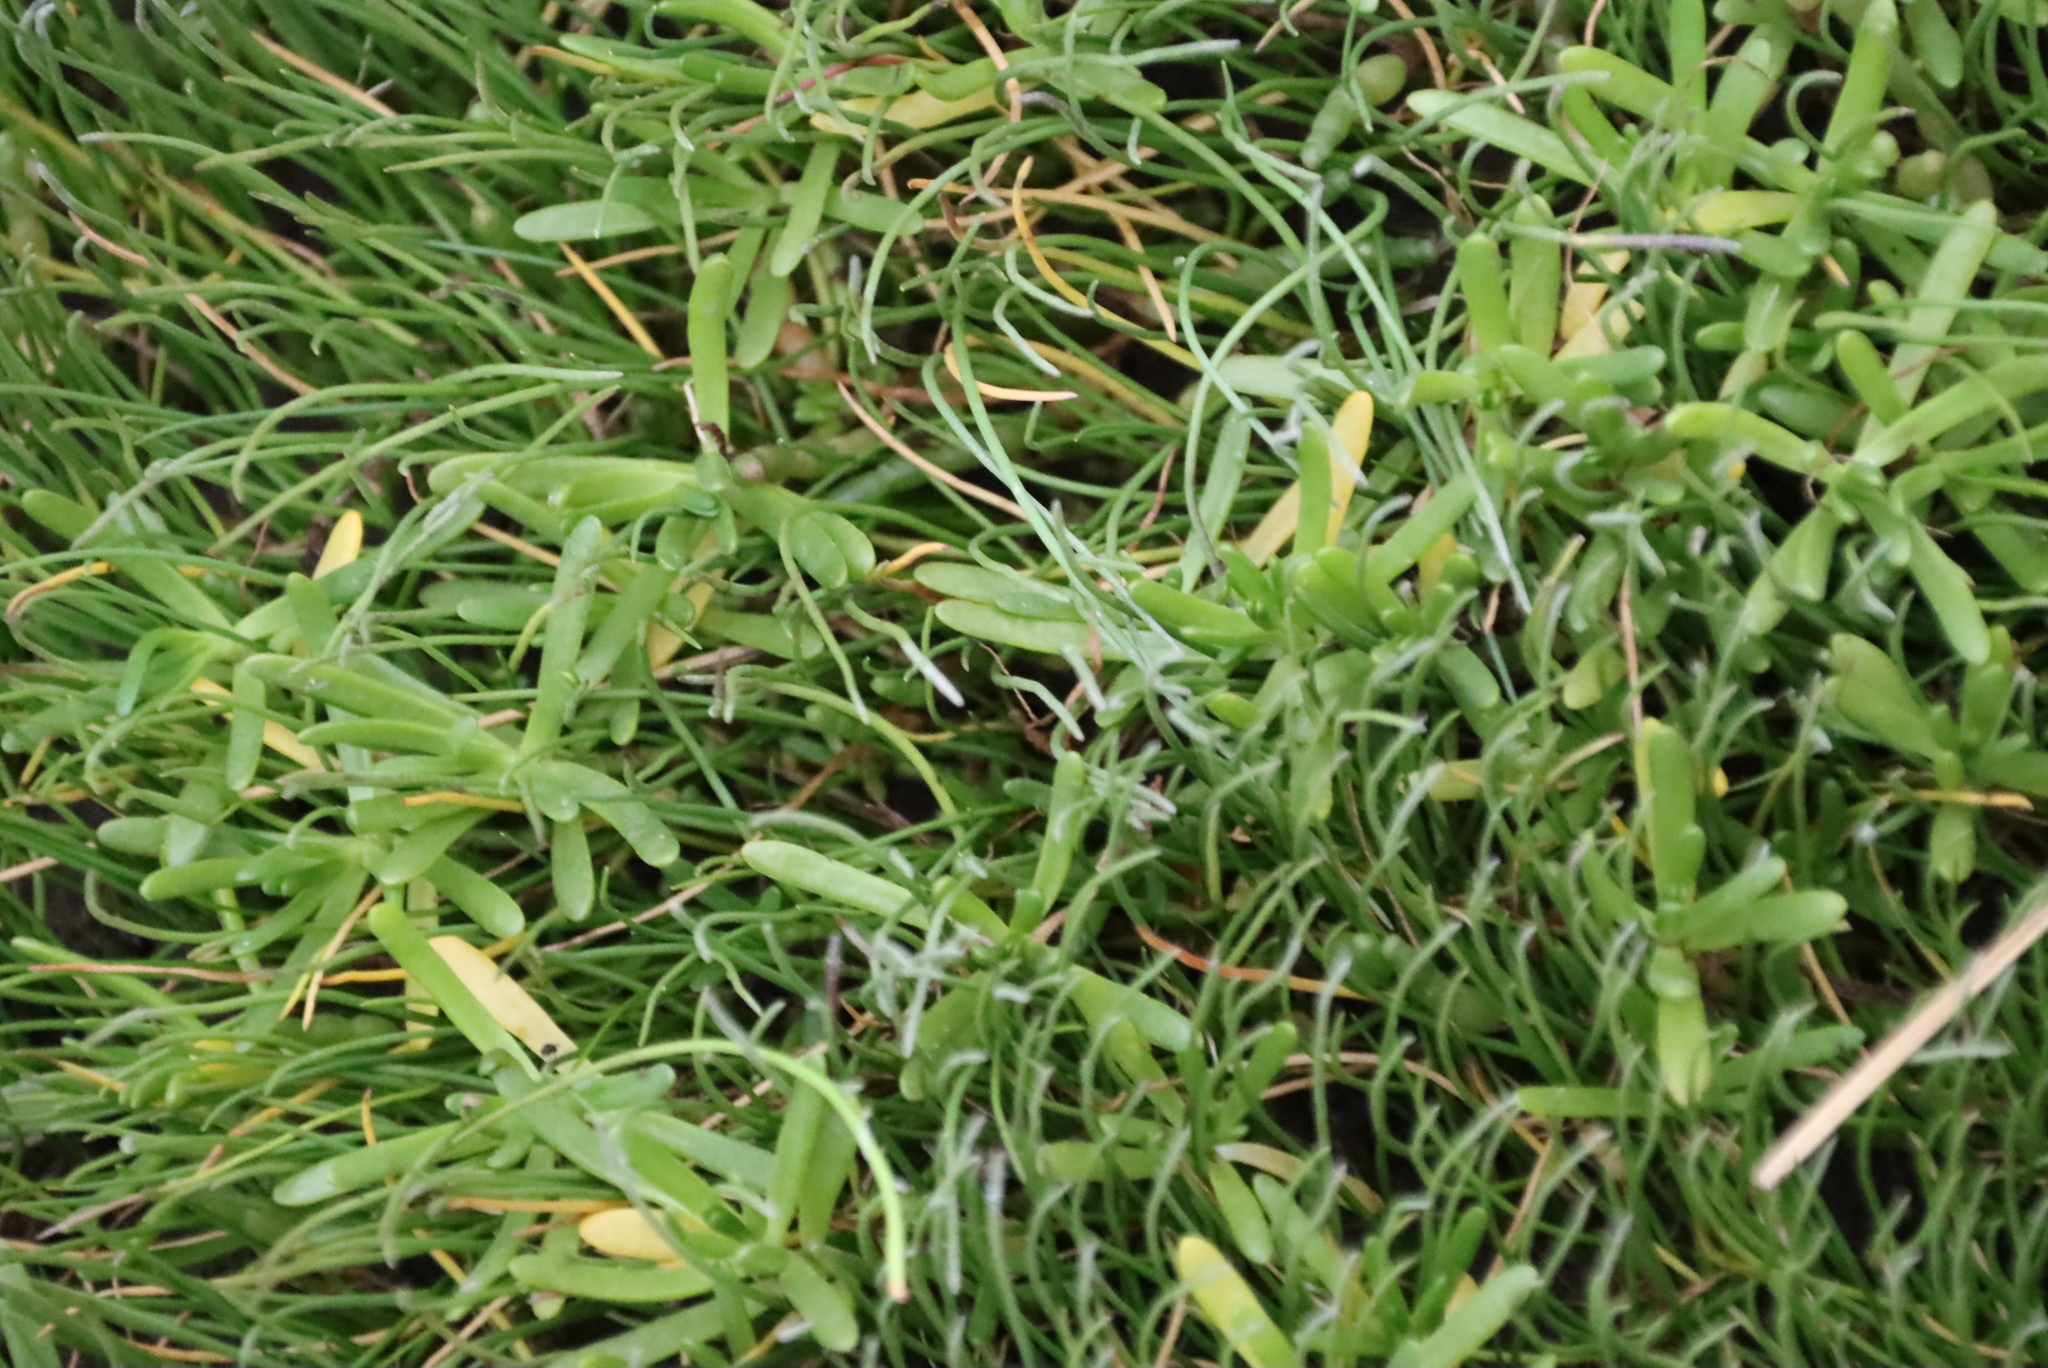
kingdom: Plantae
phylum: Tracheophyta
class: Magnoliopsida
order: Lamiales
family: Plantaginaceae
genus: Plantago
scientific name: Plantago carnosa
